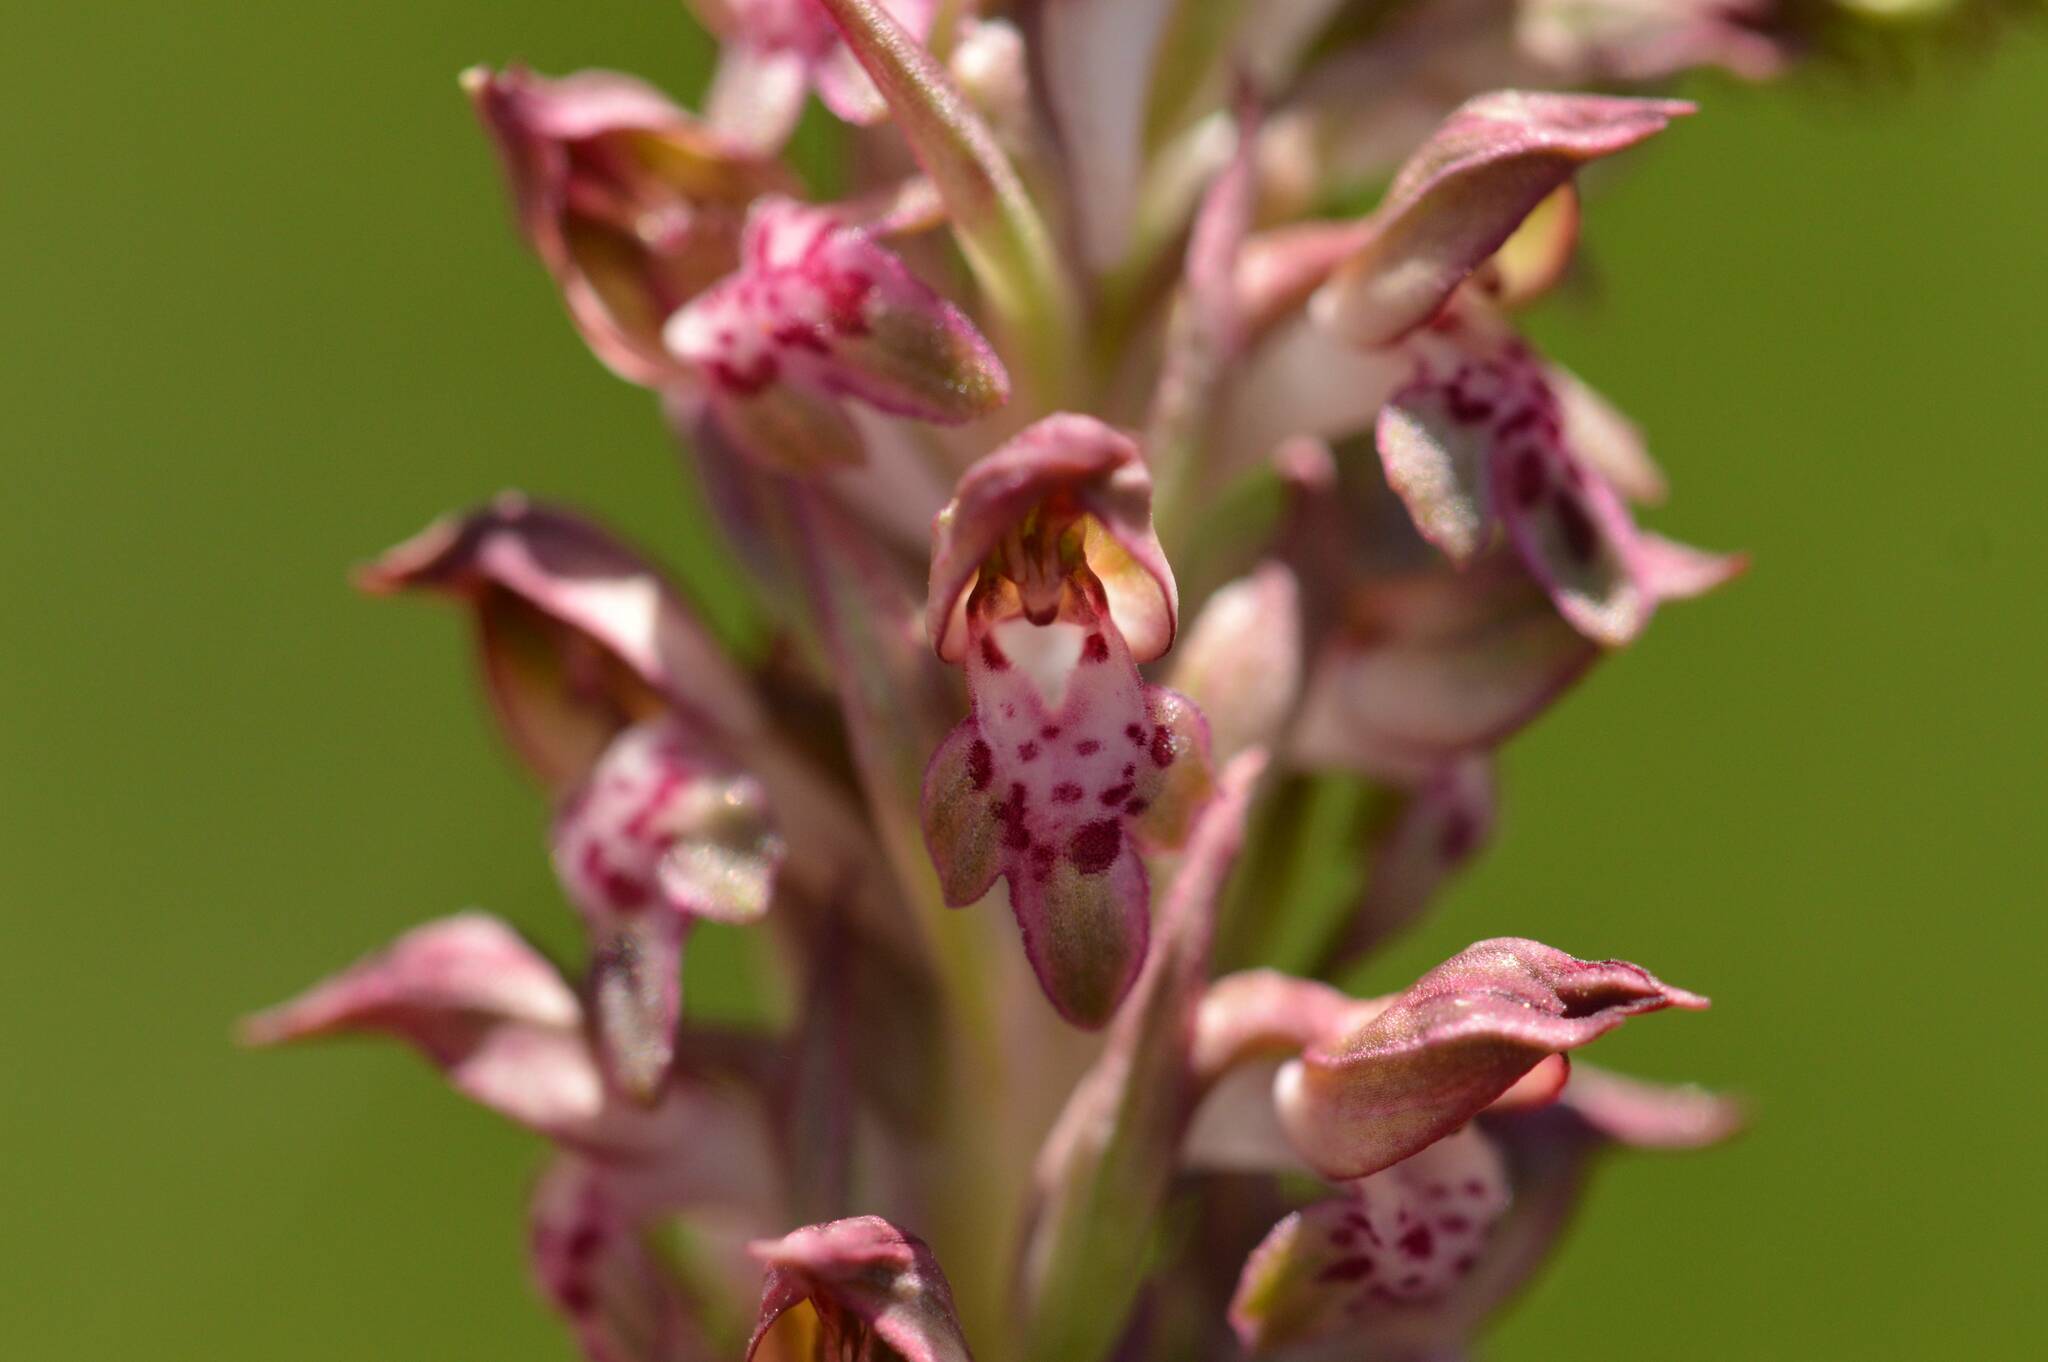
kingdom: Plantae
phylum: Tracheophyta
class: Liliopsida
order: Asparagales
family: Orchidaceae
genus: Anacamptis
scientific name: Anacamptis coriophora
